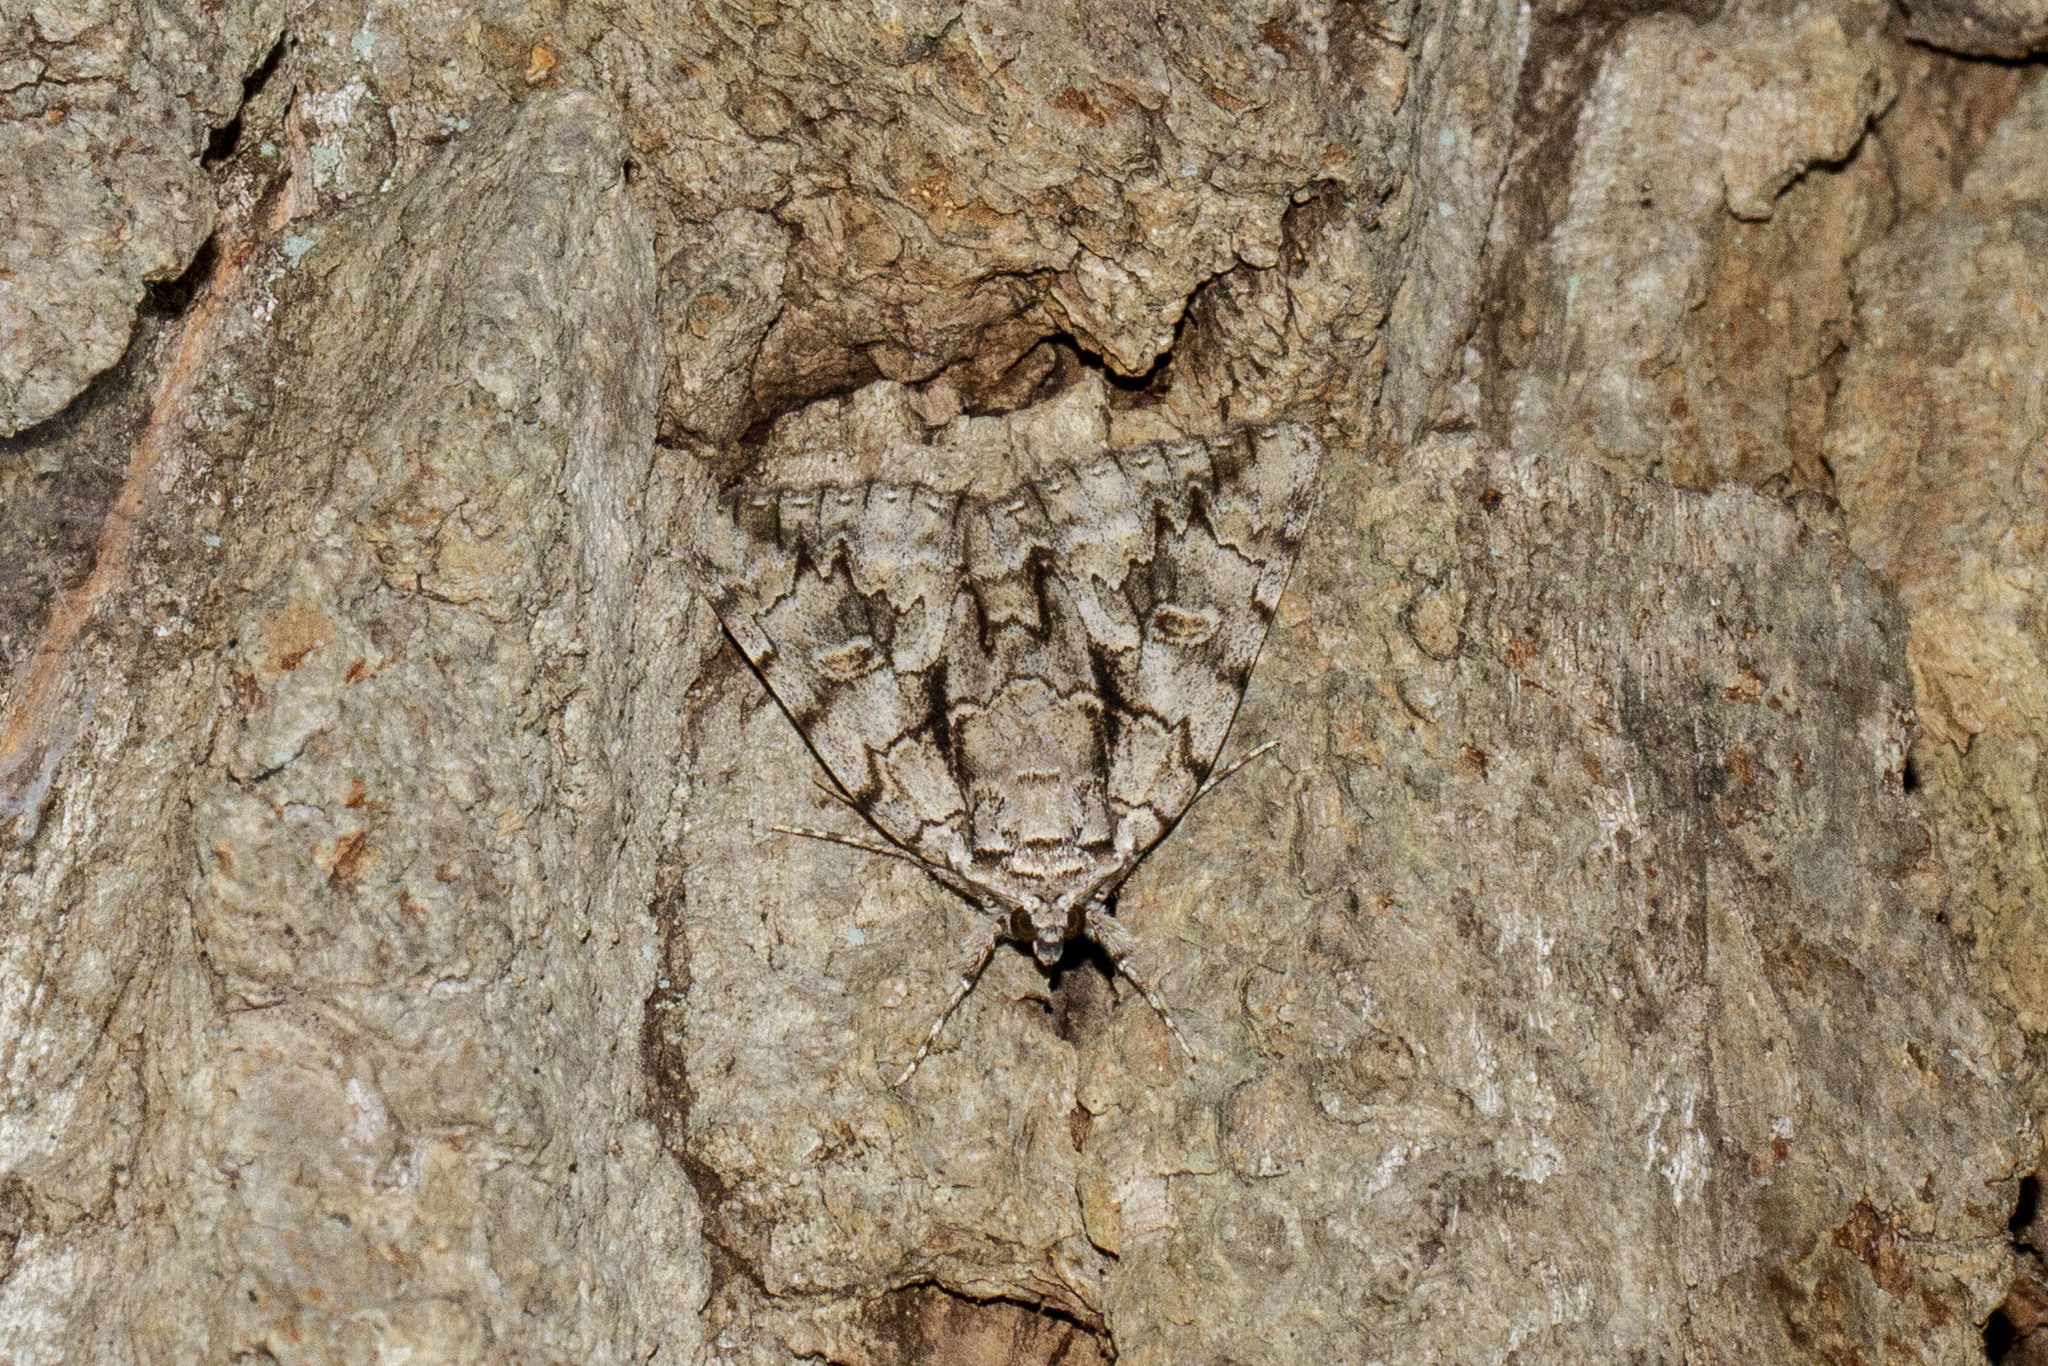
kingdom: Animalia
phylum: Arthropoda
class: Insecta
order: Lepidoptera
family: Erebidae
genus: Catocala
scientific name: Catocala retecta
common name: Yellow-gray underwing
